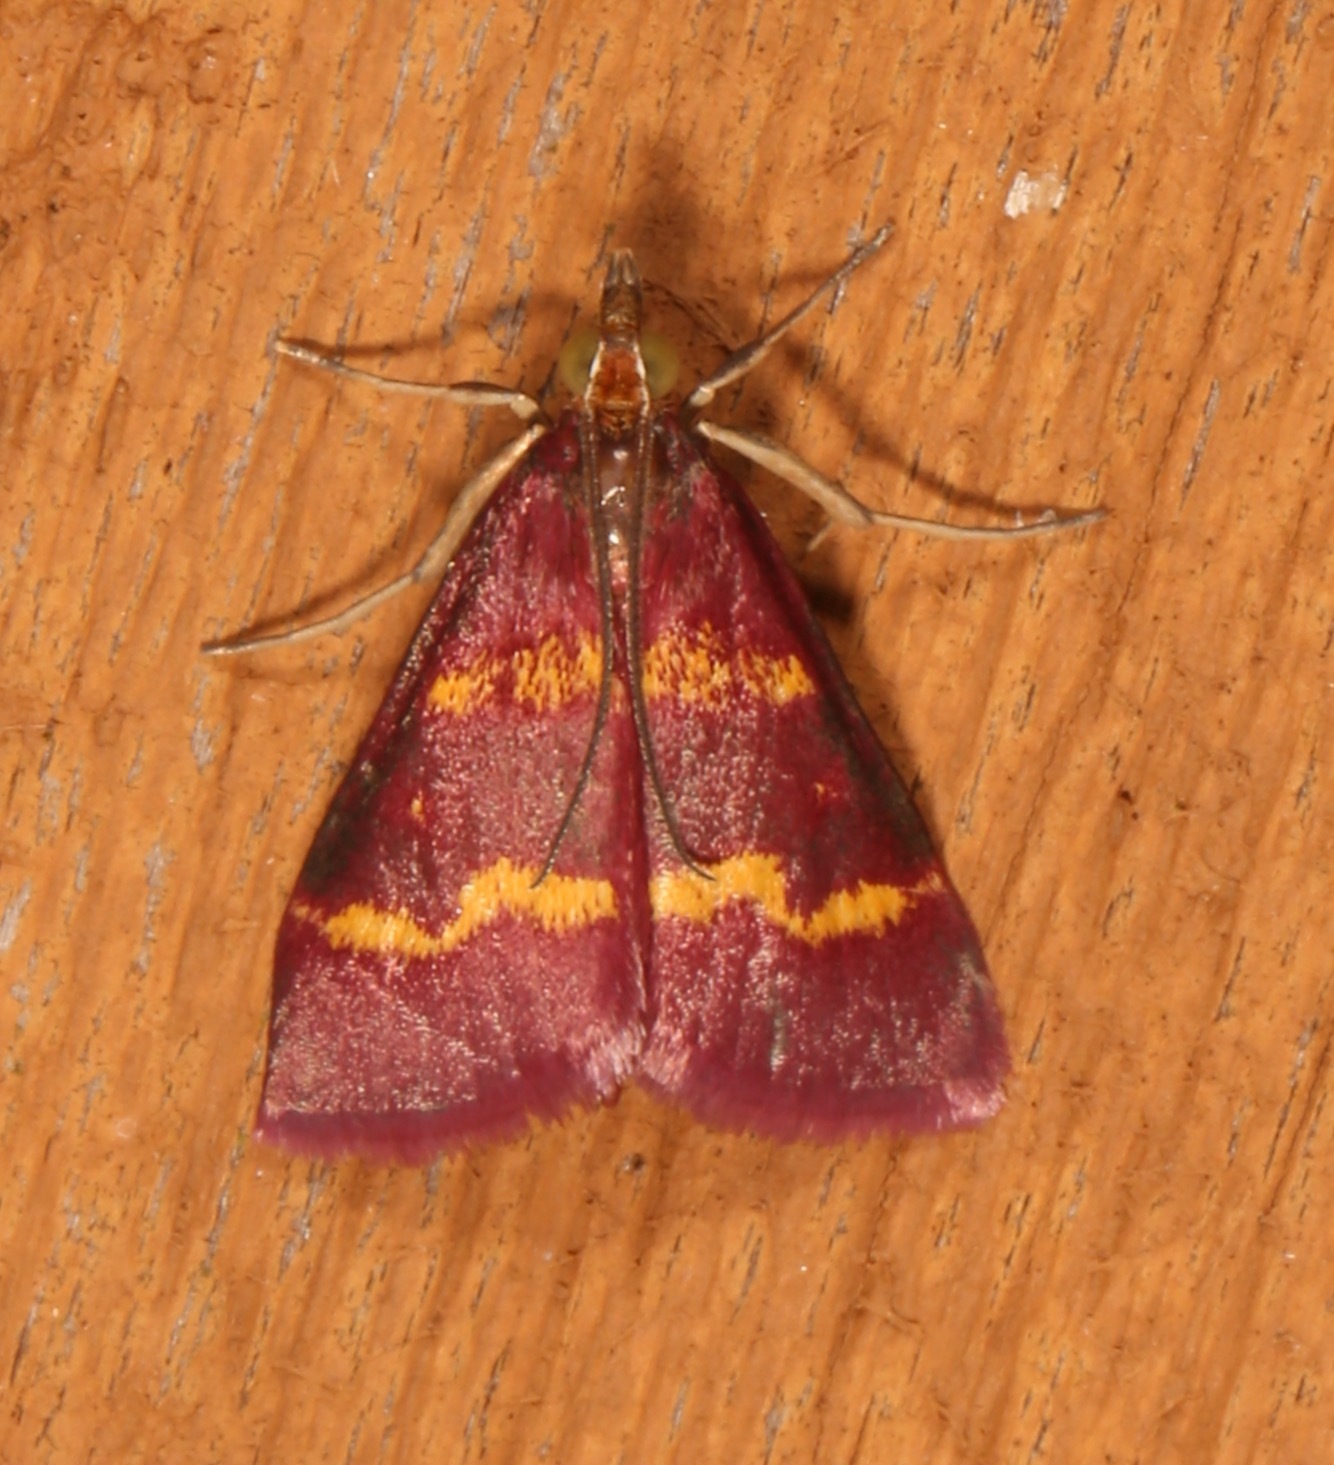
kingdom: Animalia
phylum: Arthropoda
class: Insecta
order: Lepidoptera
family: Crambidae
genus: Pyrausta
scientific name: Pyrausta tyralis
